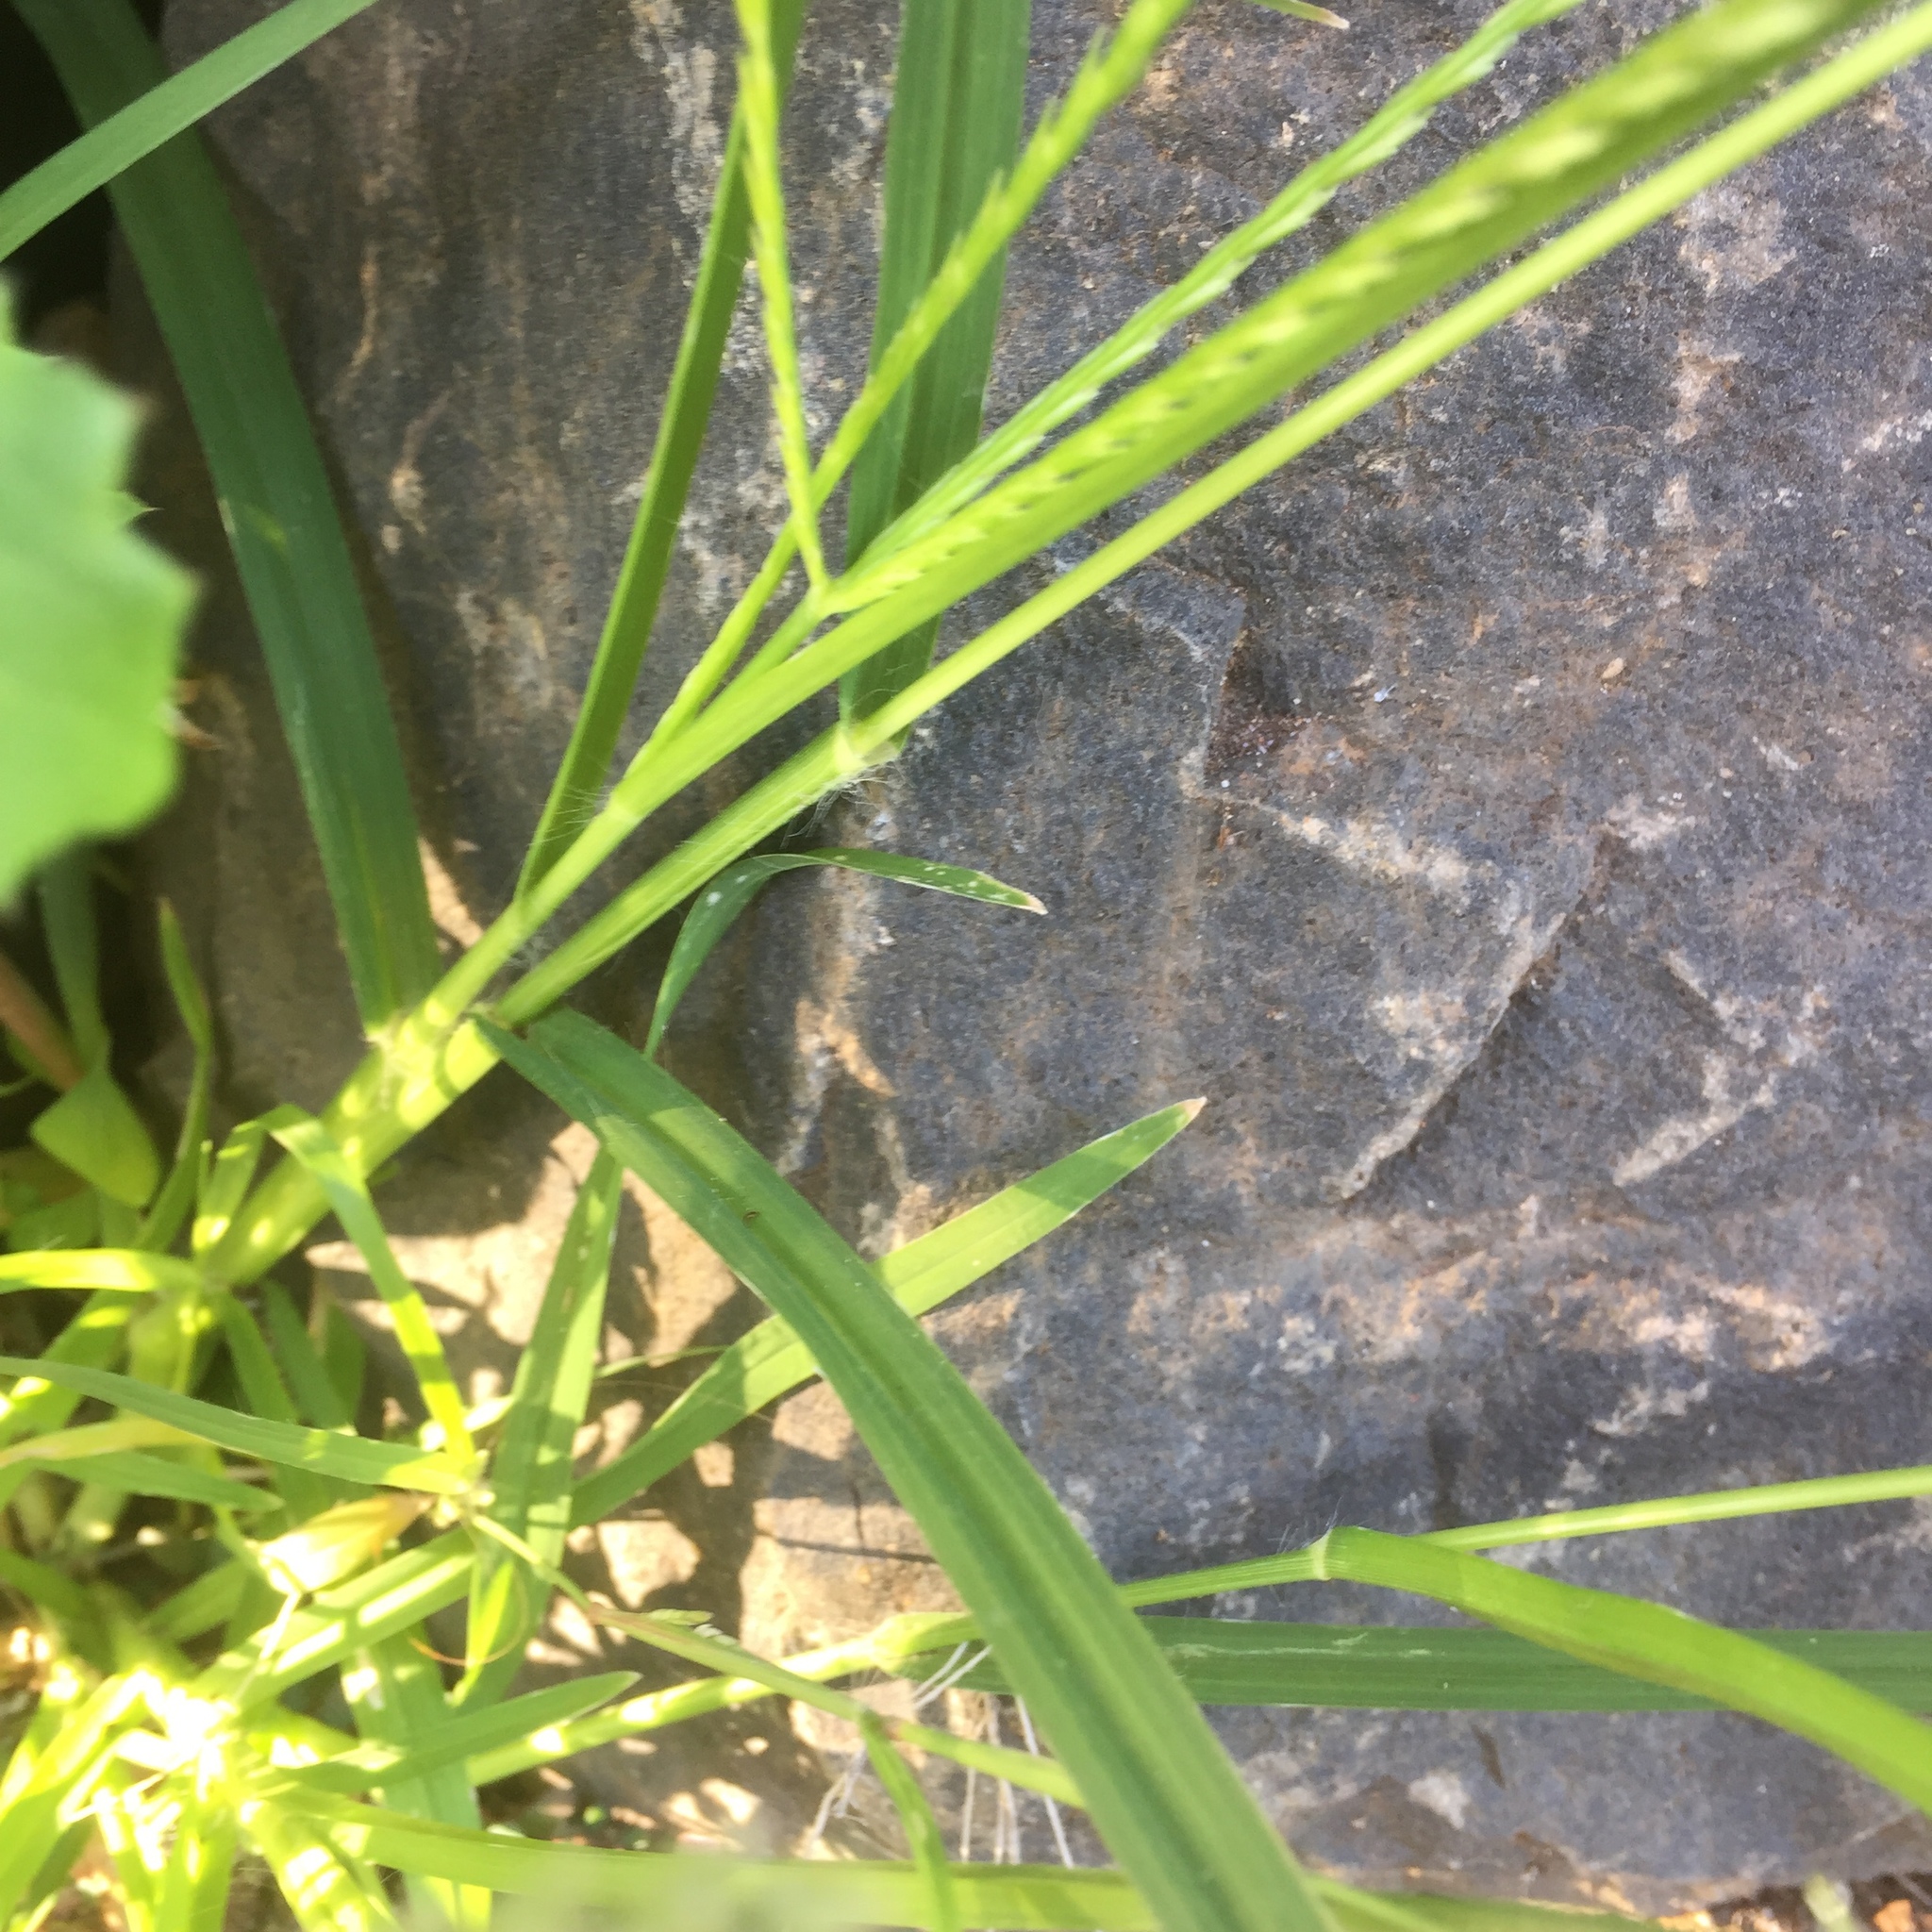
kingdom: Plantae
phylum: Tracheophyta
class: Liliopsida
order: Poales
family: Poaceae
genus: Eleusine
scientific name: Eleusine indica
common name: Yard-grass
